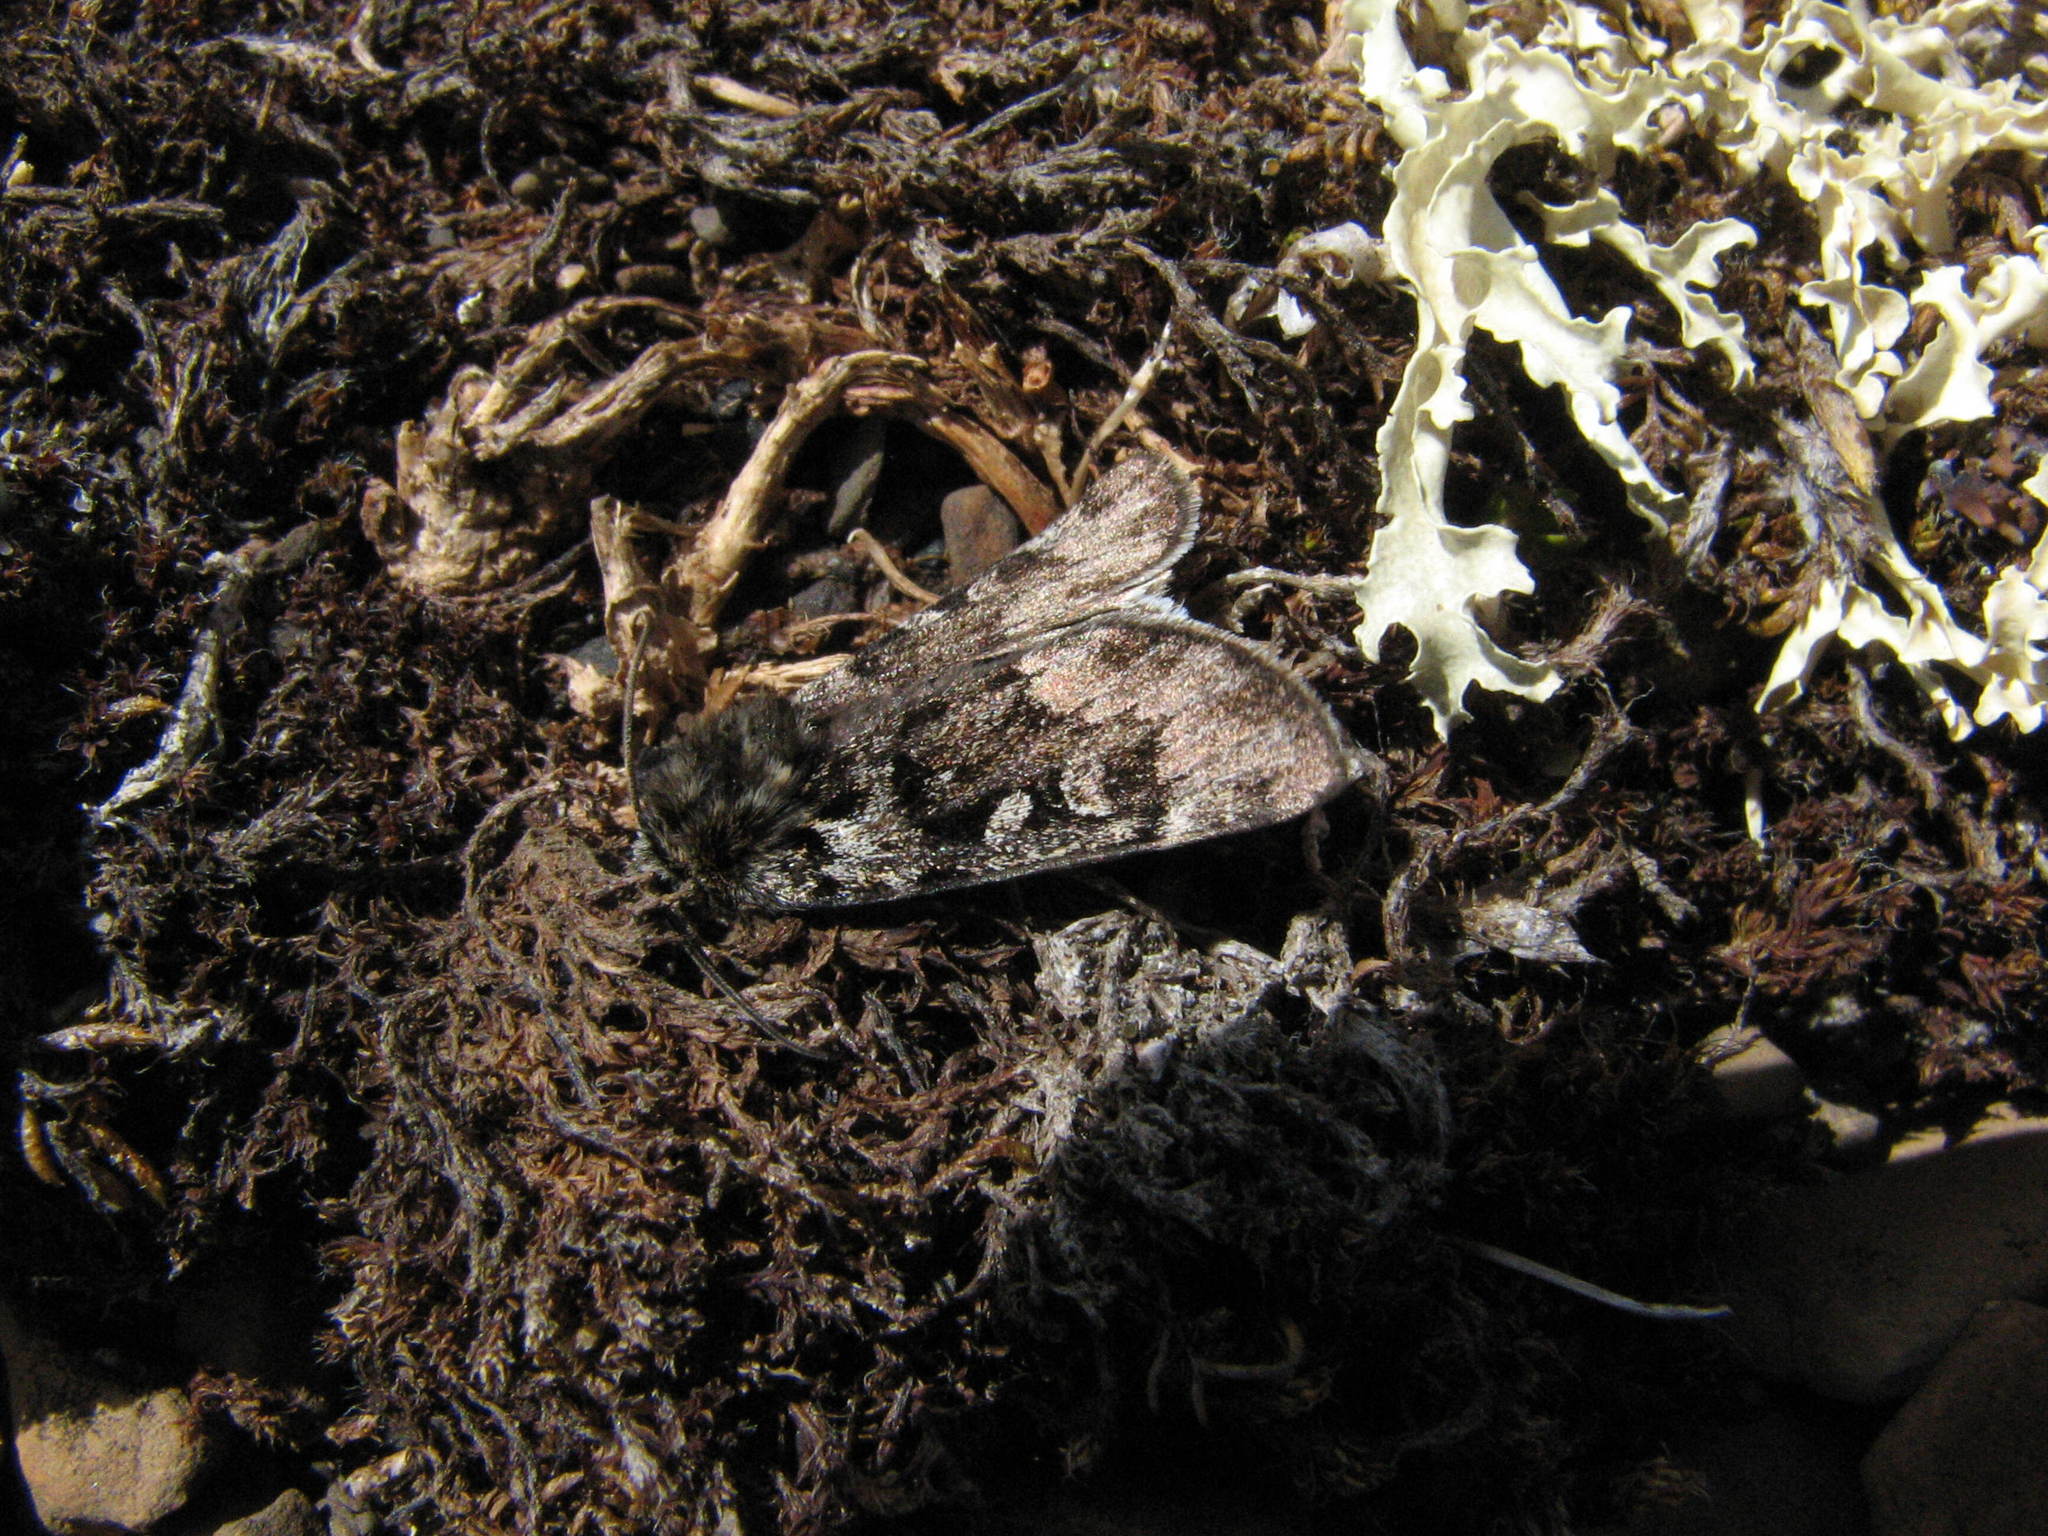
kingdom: Animalia
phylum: Arthropoda
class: Insecta
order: Lepidoptera
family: Noctuidae
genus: Xestia
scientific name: Xestia maculata
